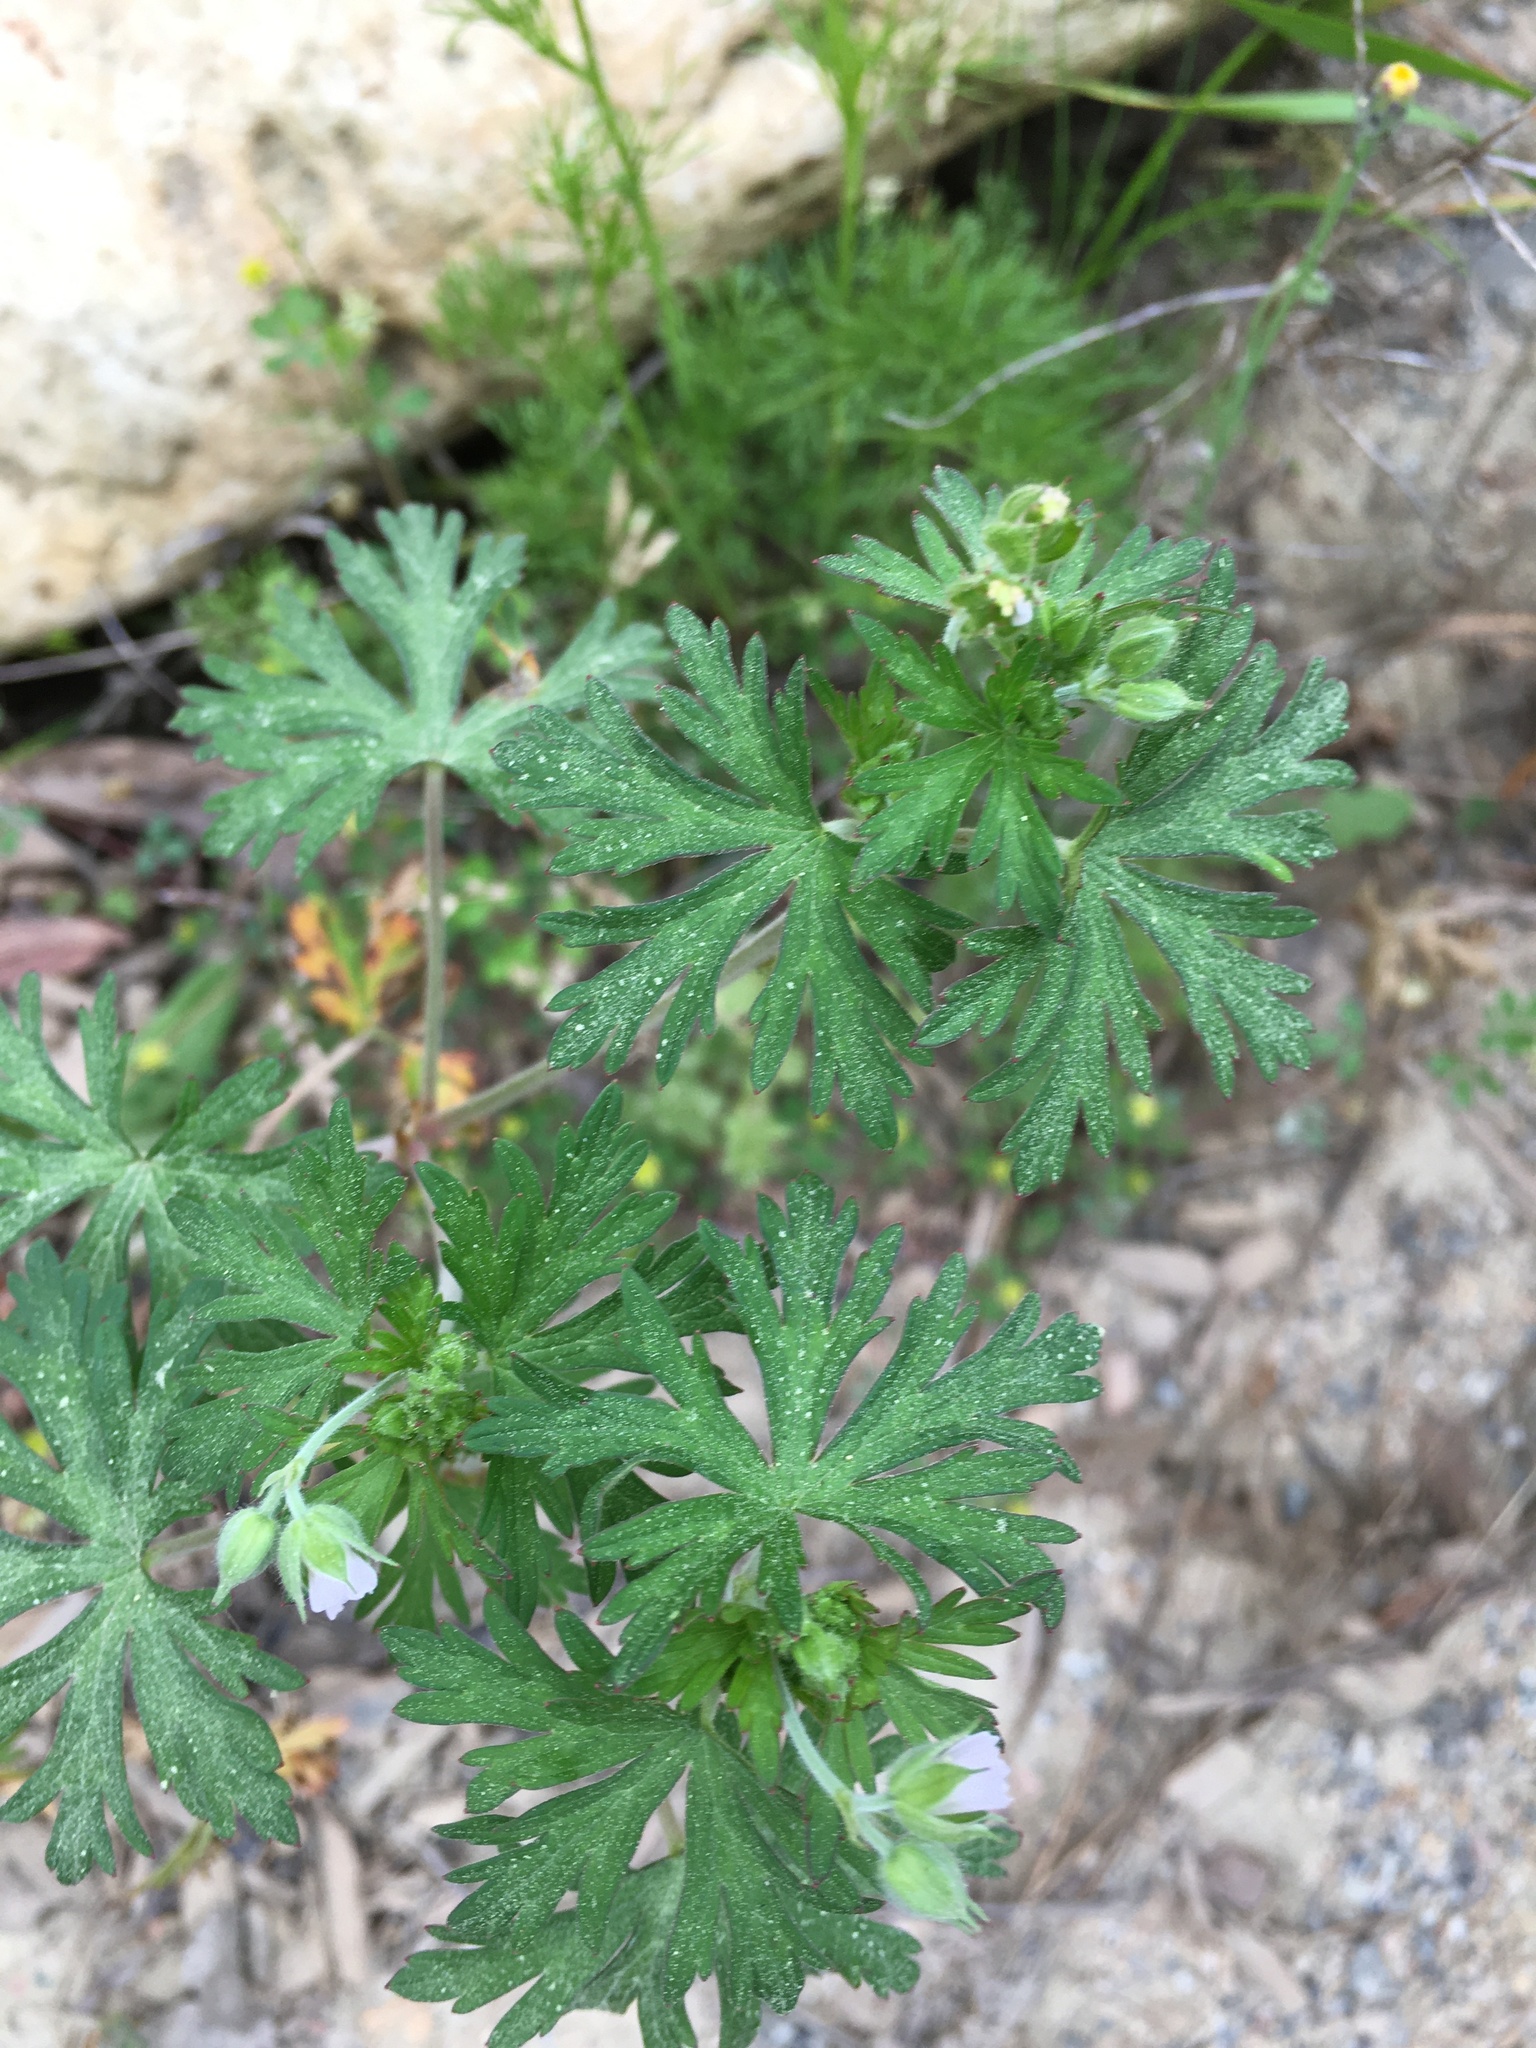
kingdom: Plantae
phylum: Tracheophyta
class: Magnoliopsida
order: Geraniales
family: Geraniaceae
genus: Geranium
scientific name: Geranium carolinianum
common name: Carolina crane's-bill
